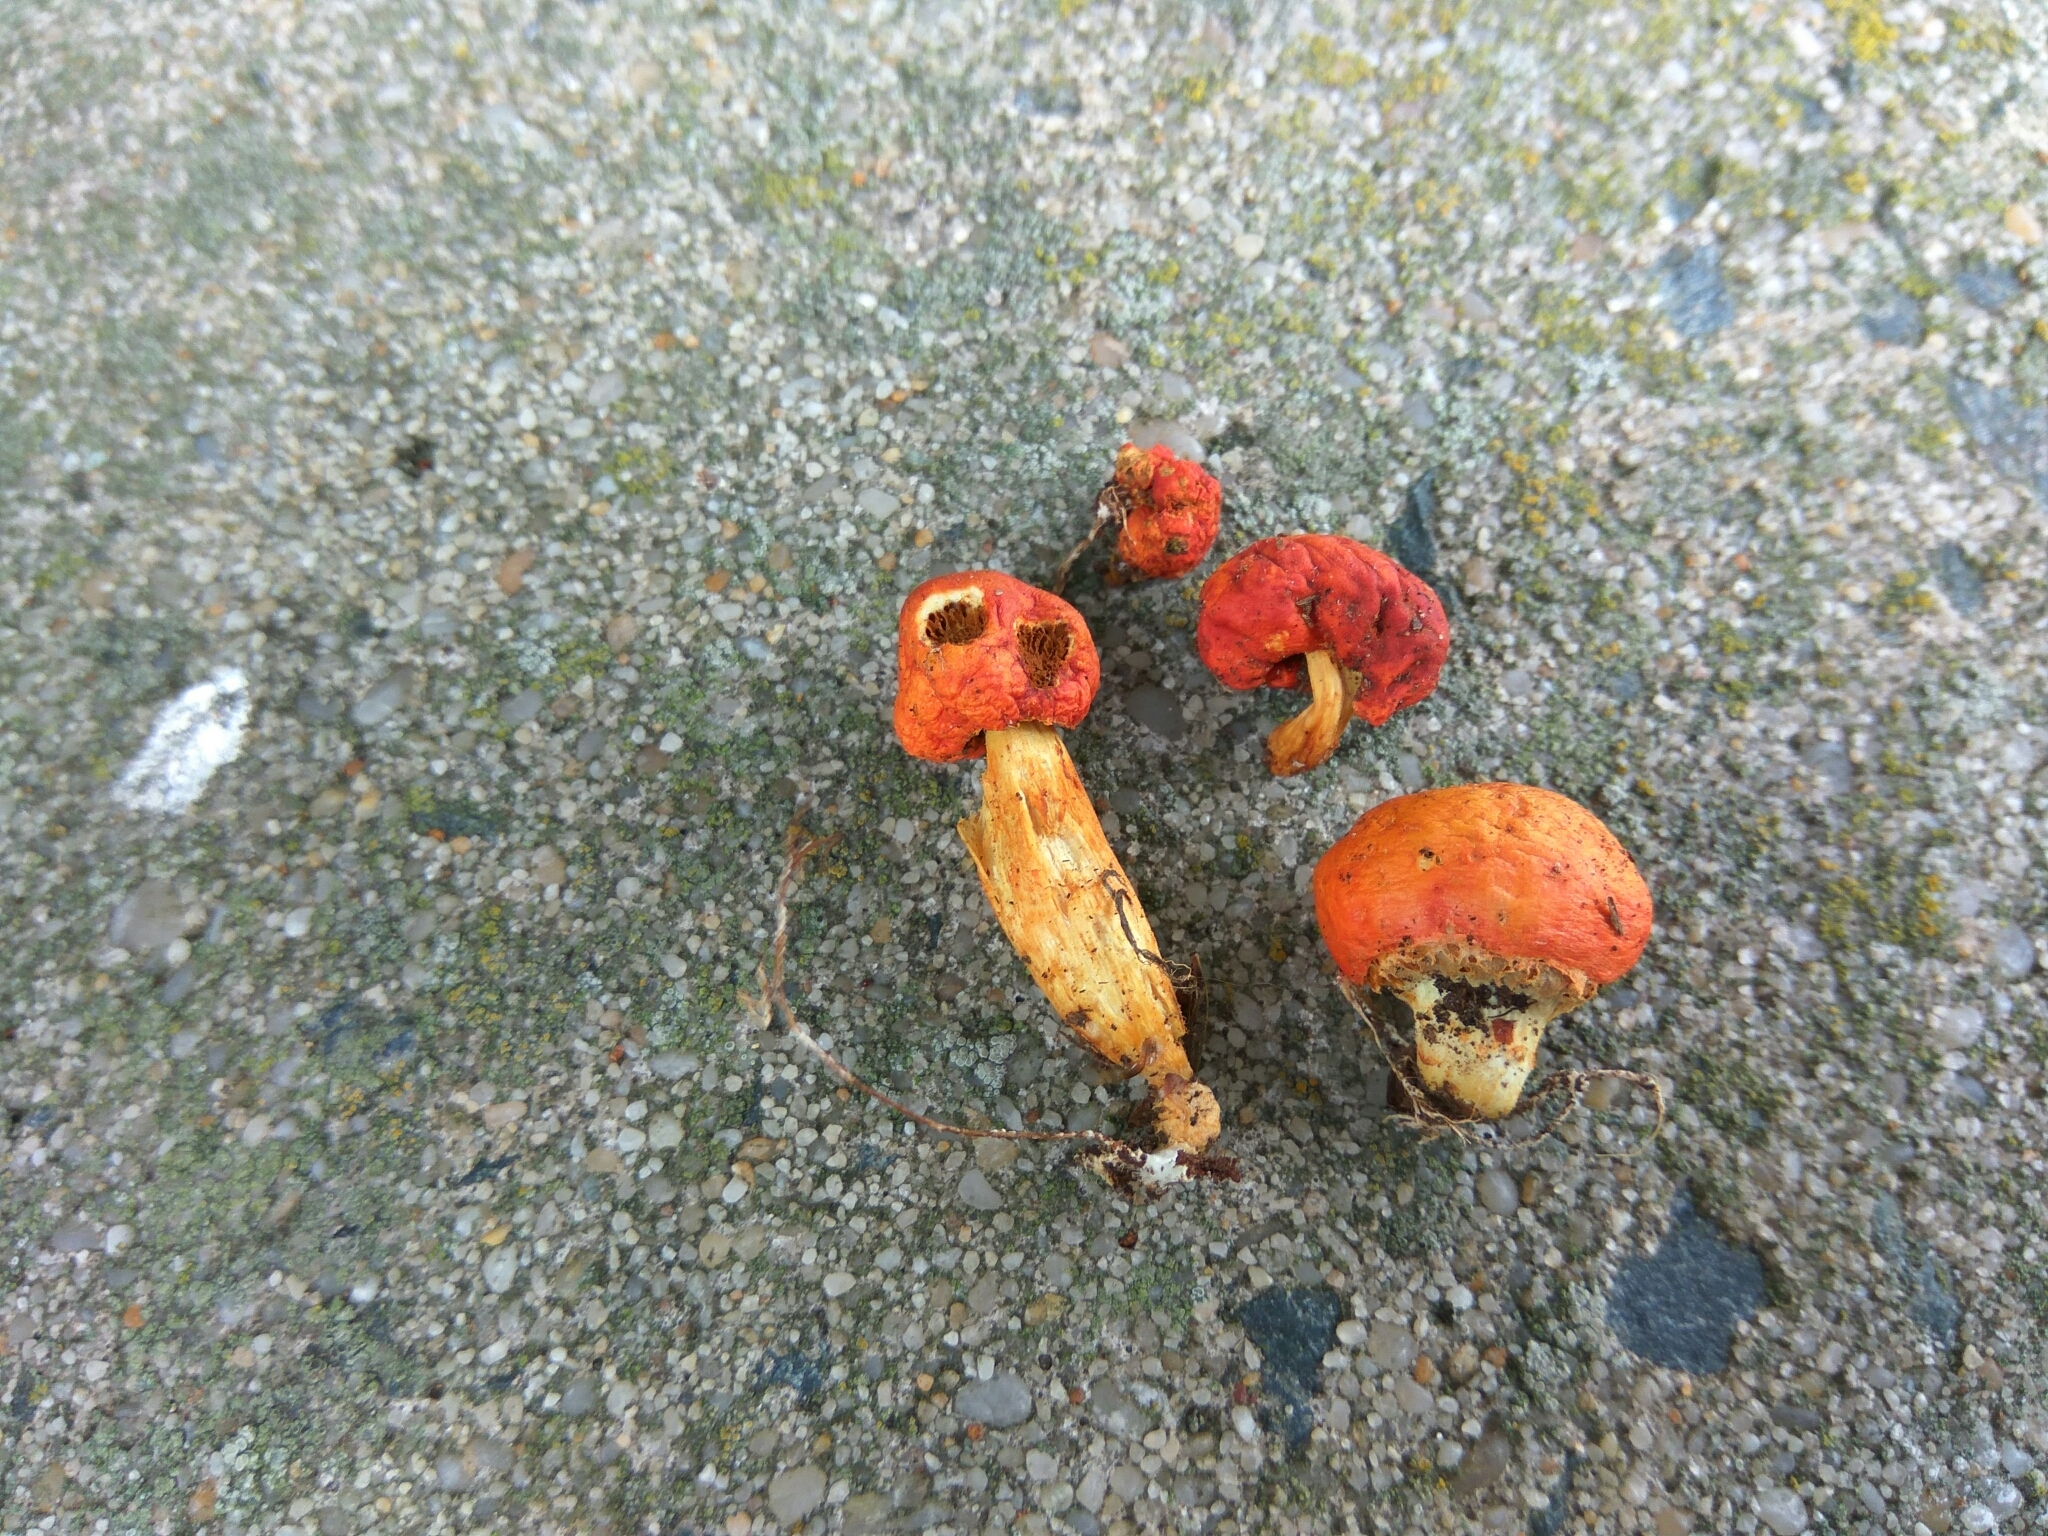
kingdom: Fungi
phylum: Basidiomycota
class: Agaricomycetes
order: Agaricales
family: Strophariaceae
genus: Leratiomyces
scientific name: Leratiomyces erythrocephalus
